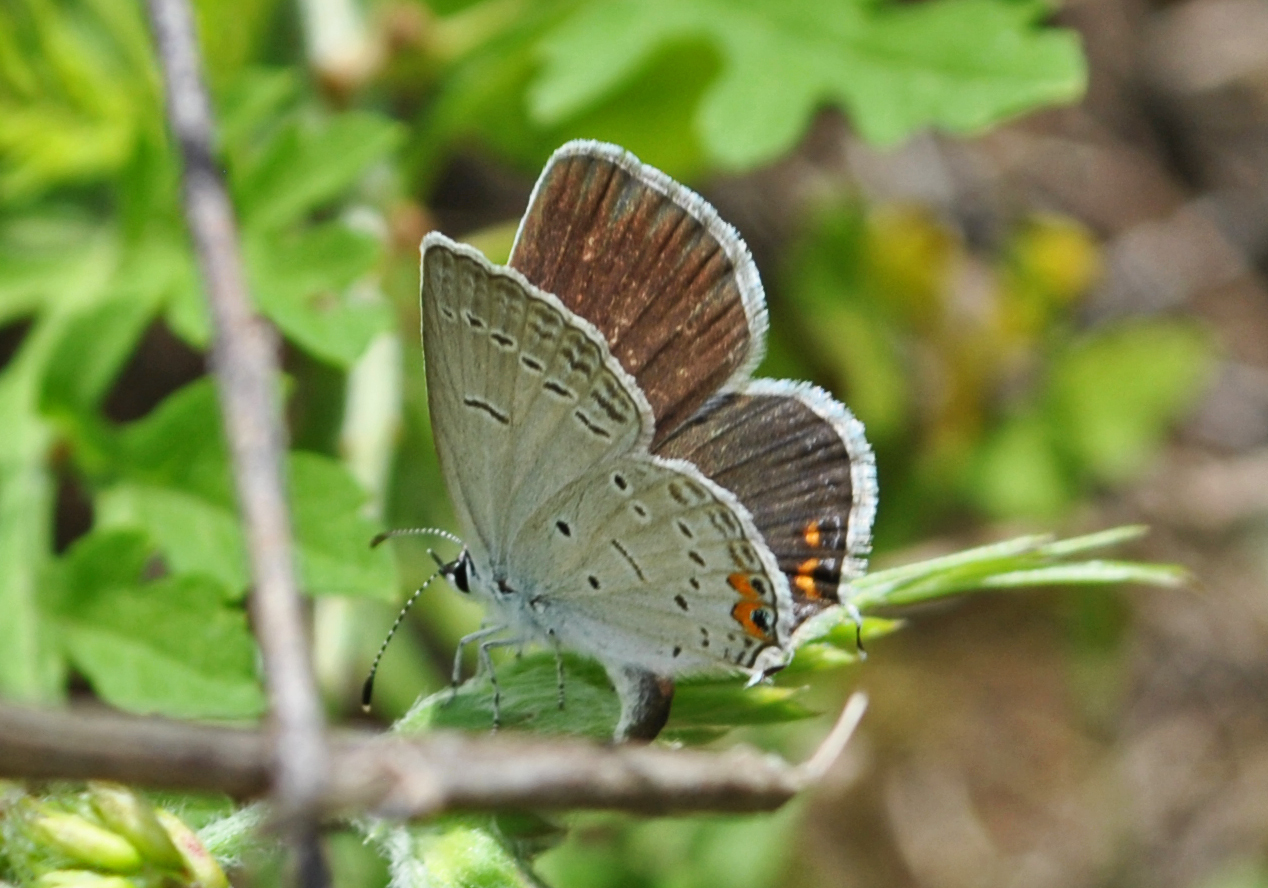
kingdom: Animalia
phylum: Arthropoda
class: Insecta
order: Lepidoptera
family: Lycaenidae
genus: Elkalyce
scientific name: Elkalyce comyntas
